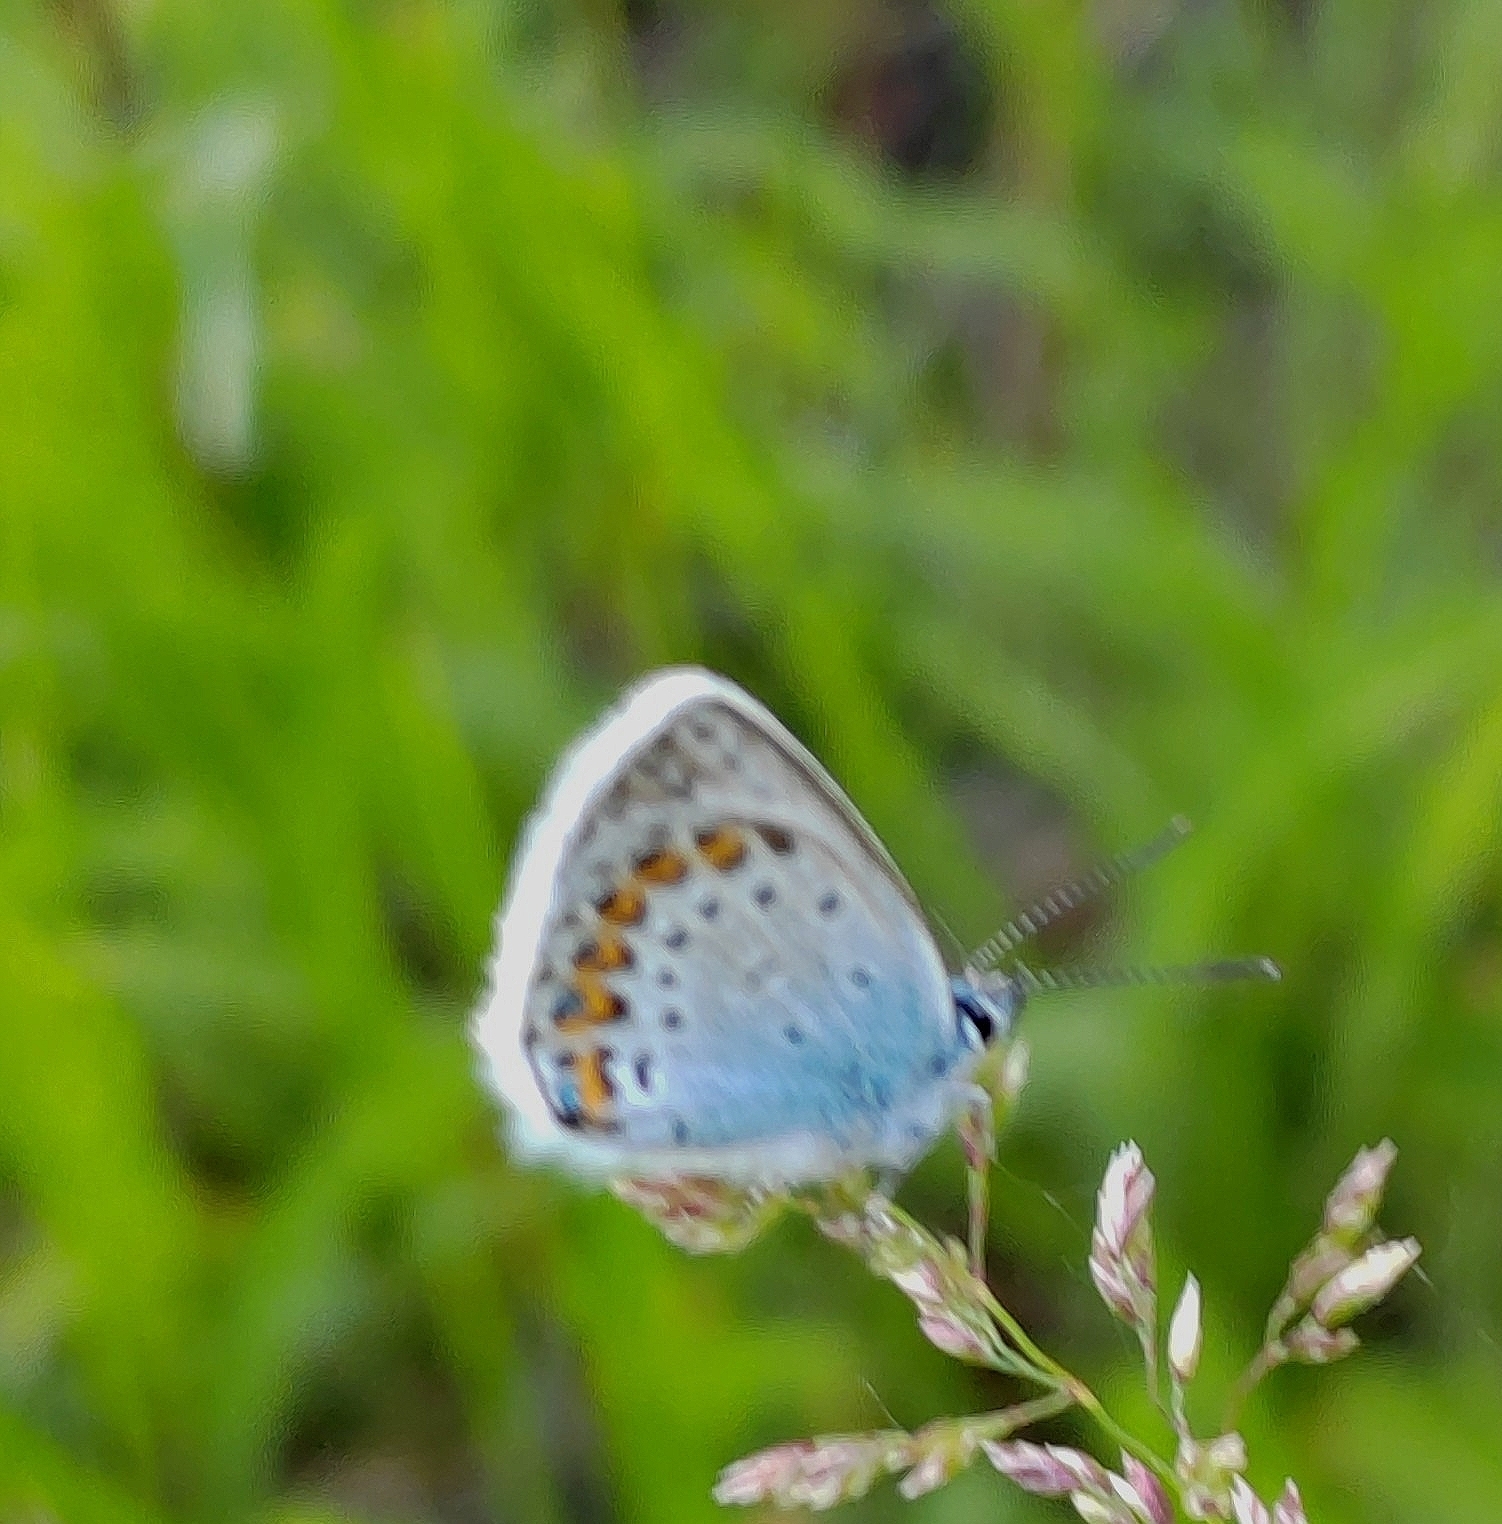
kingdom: Animalia
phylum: Arthropoda
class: Insecta
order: Lepidoptera
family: Lycaenidae
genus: Plebejus
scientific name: Plebejus argus
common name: Silver-studded blue
